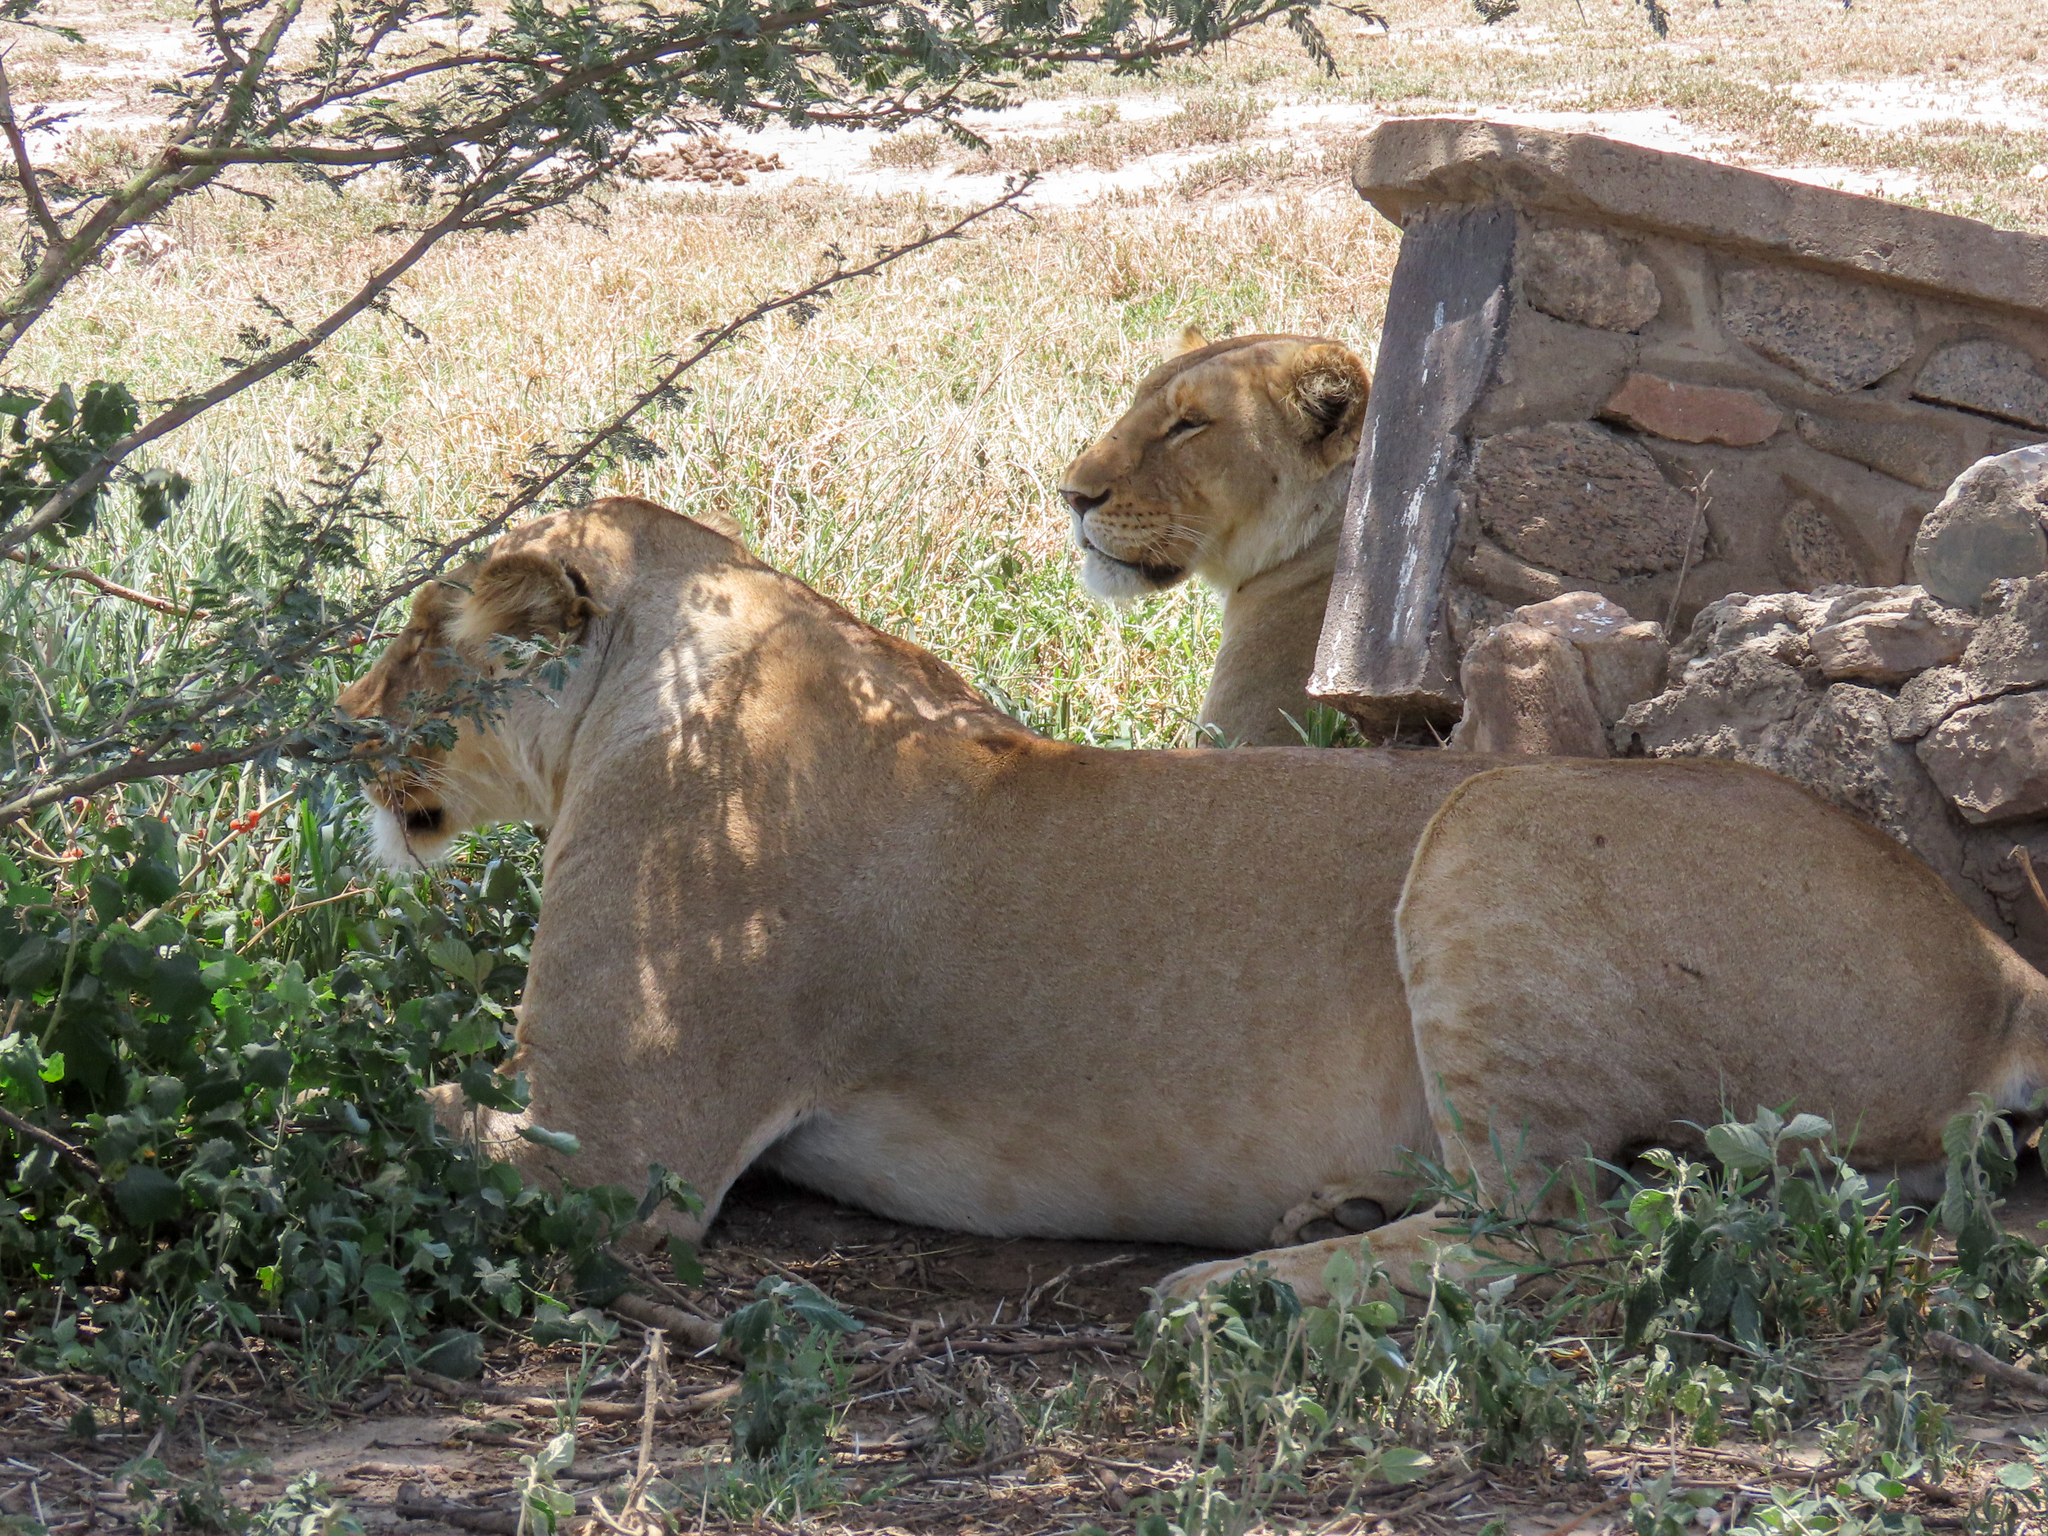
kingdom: Animalia
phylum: Chordata
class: Mammalia
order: Carnivora
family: Felidae
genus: Panthera
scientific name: Panthera leo
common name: Lion
